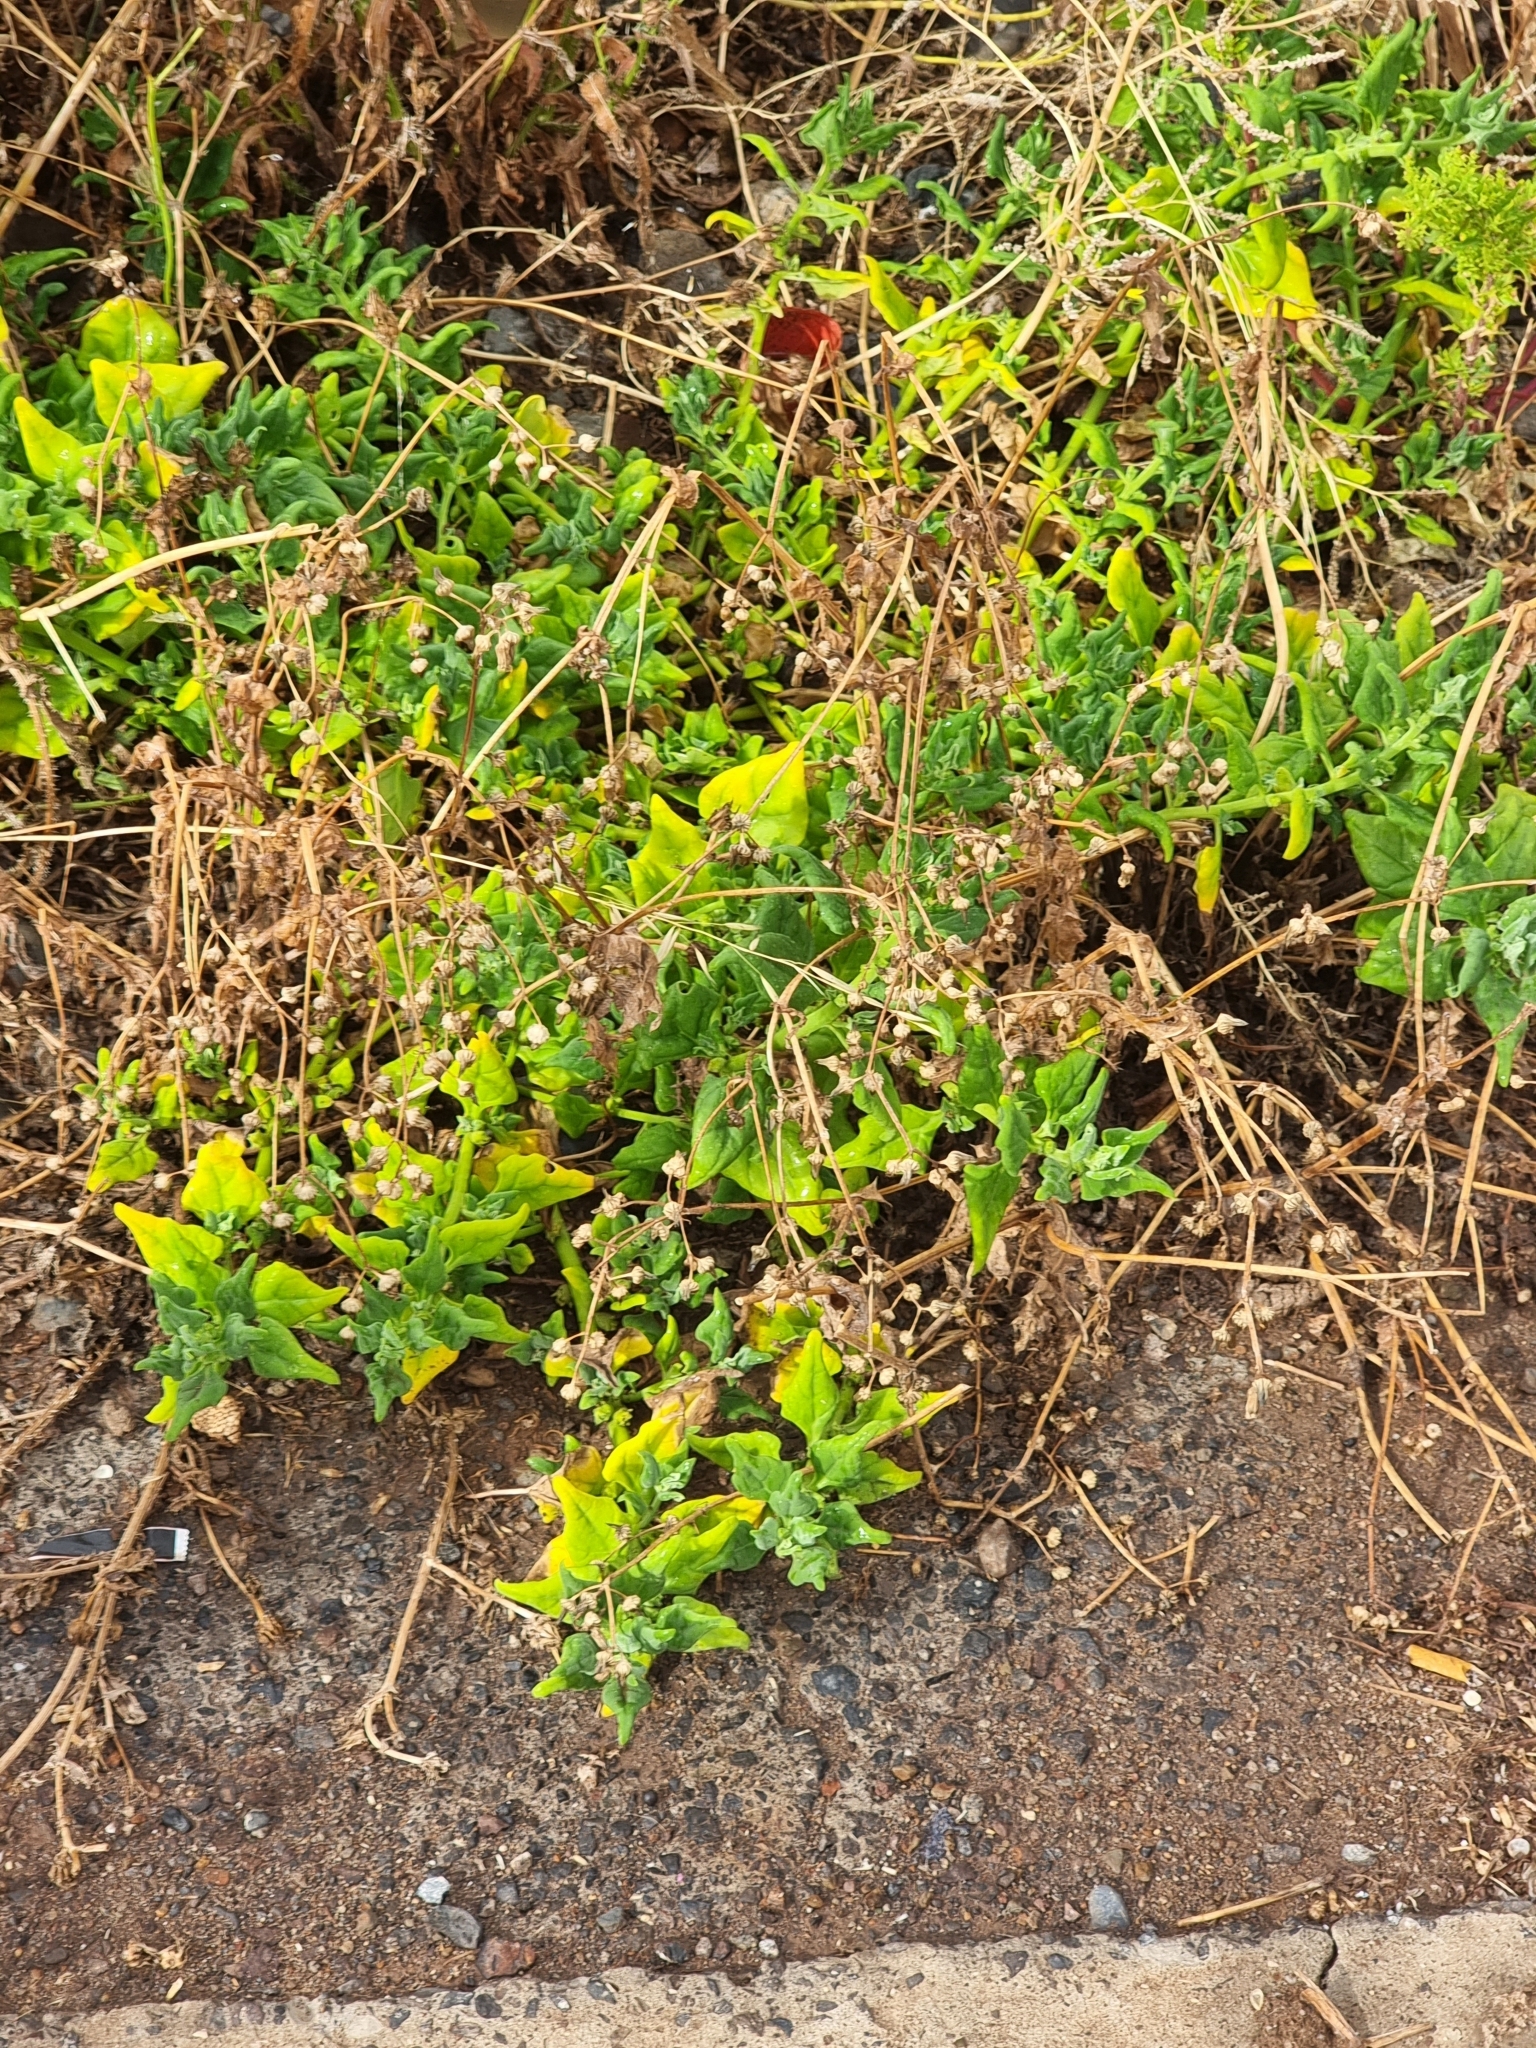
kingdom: Plantae
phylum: Tracheophyta
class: Magnoliopsida
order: Caryophyllales
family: Aizoaceae
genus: Tetragonia
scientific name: Tetragonia tetragonoides
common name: New zealand-spinach
